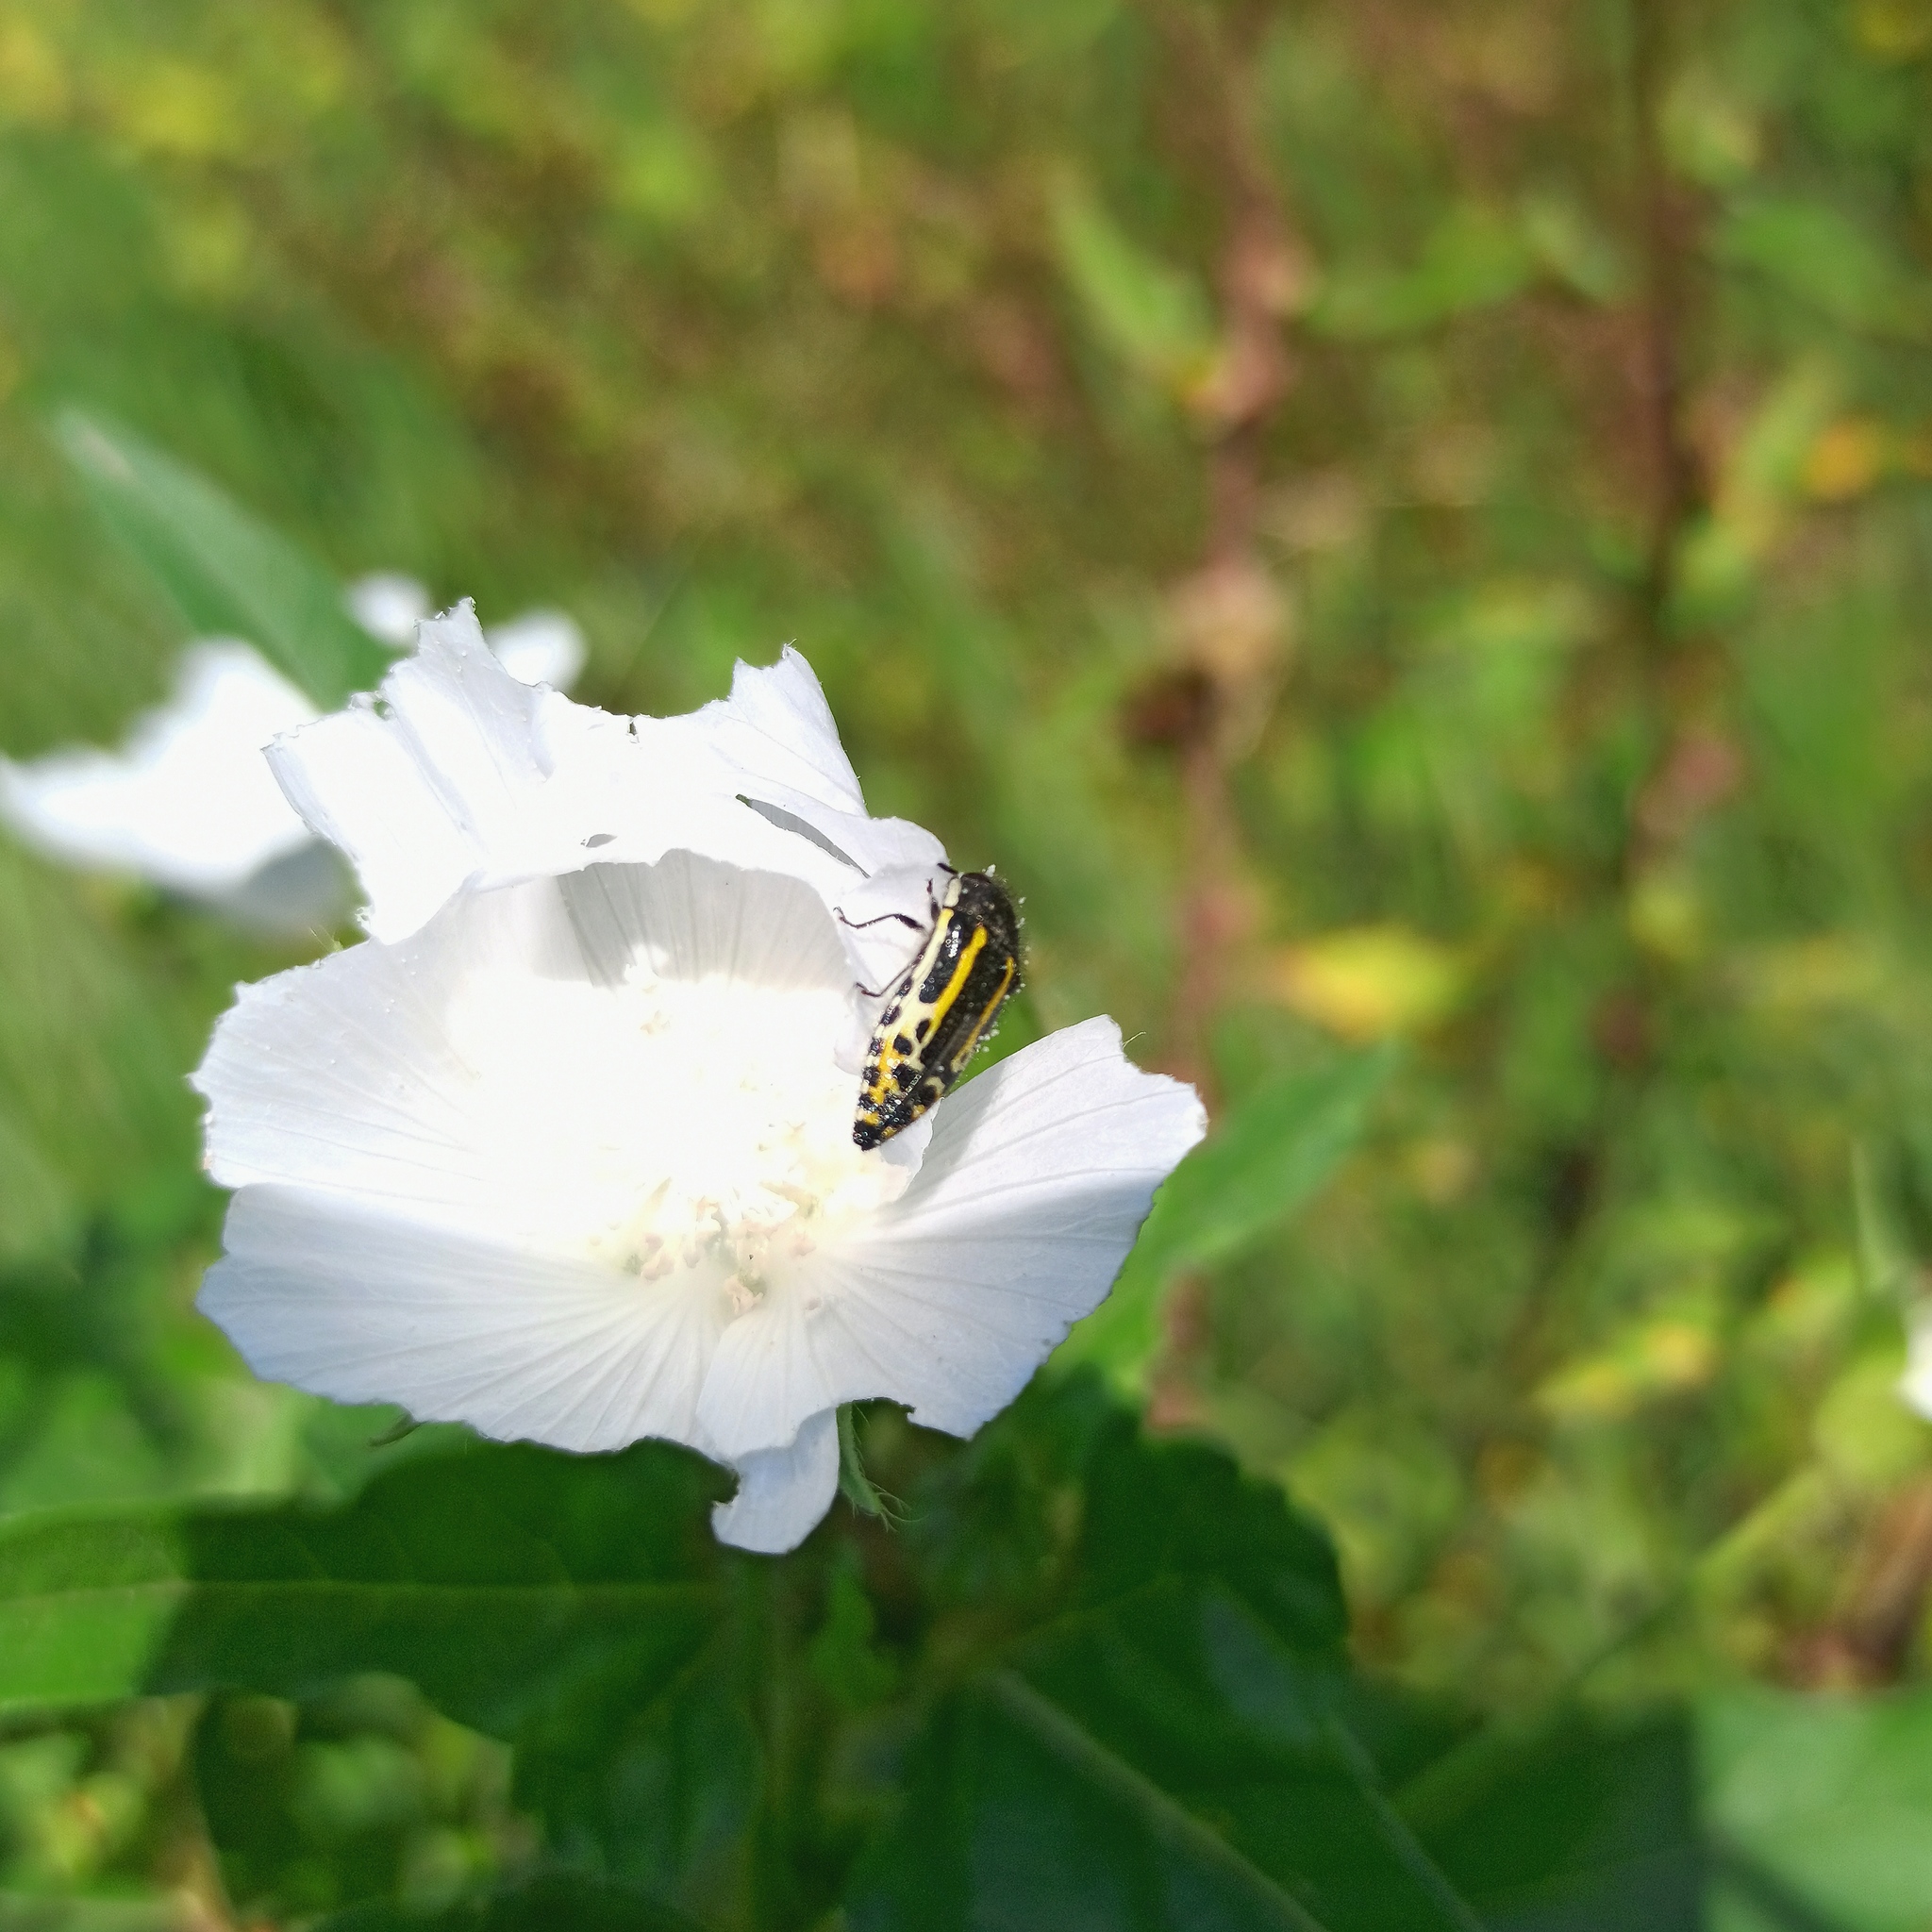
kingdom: Animalia
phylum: Arthropoda
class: Insecta
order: Coleoptera
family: Buprestidae
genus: Acmaeodera
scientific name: Acmaeodera scalaris
